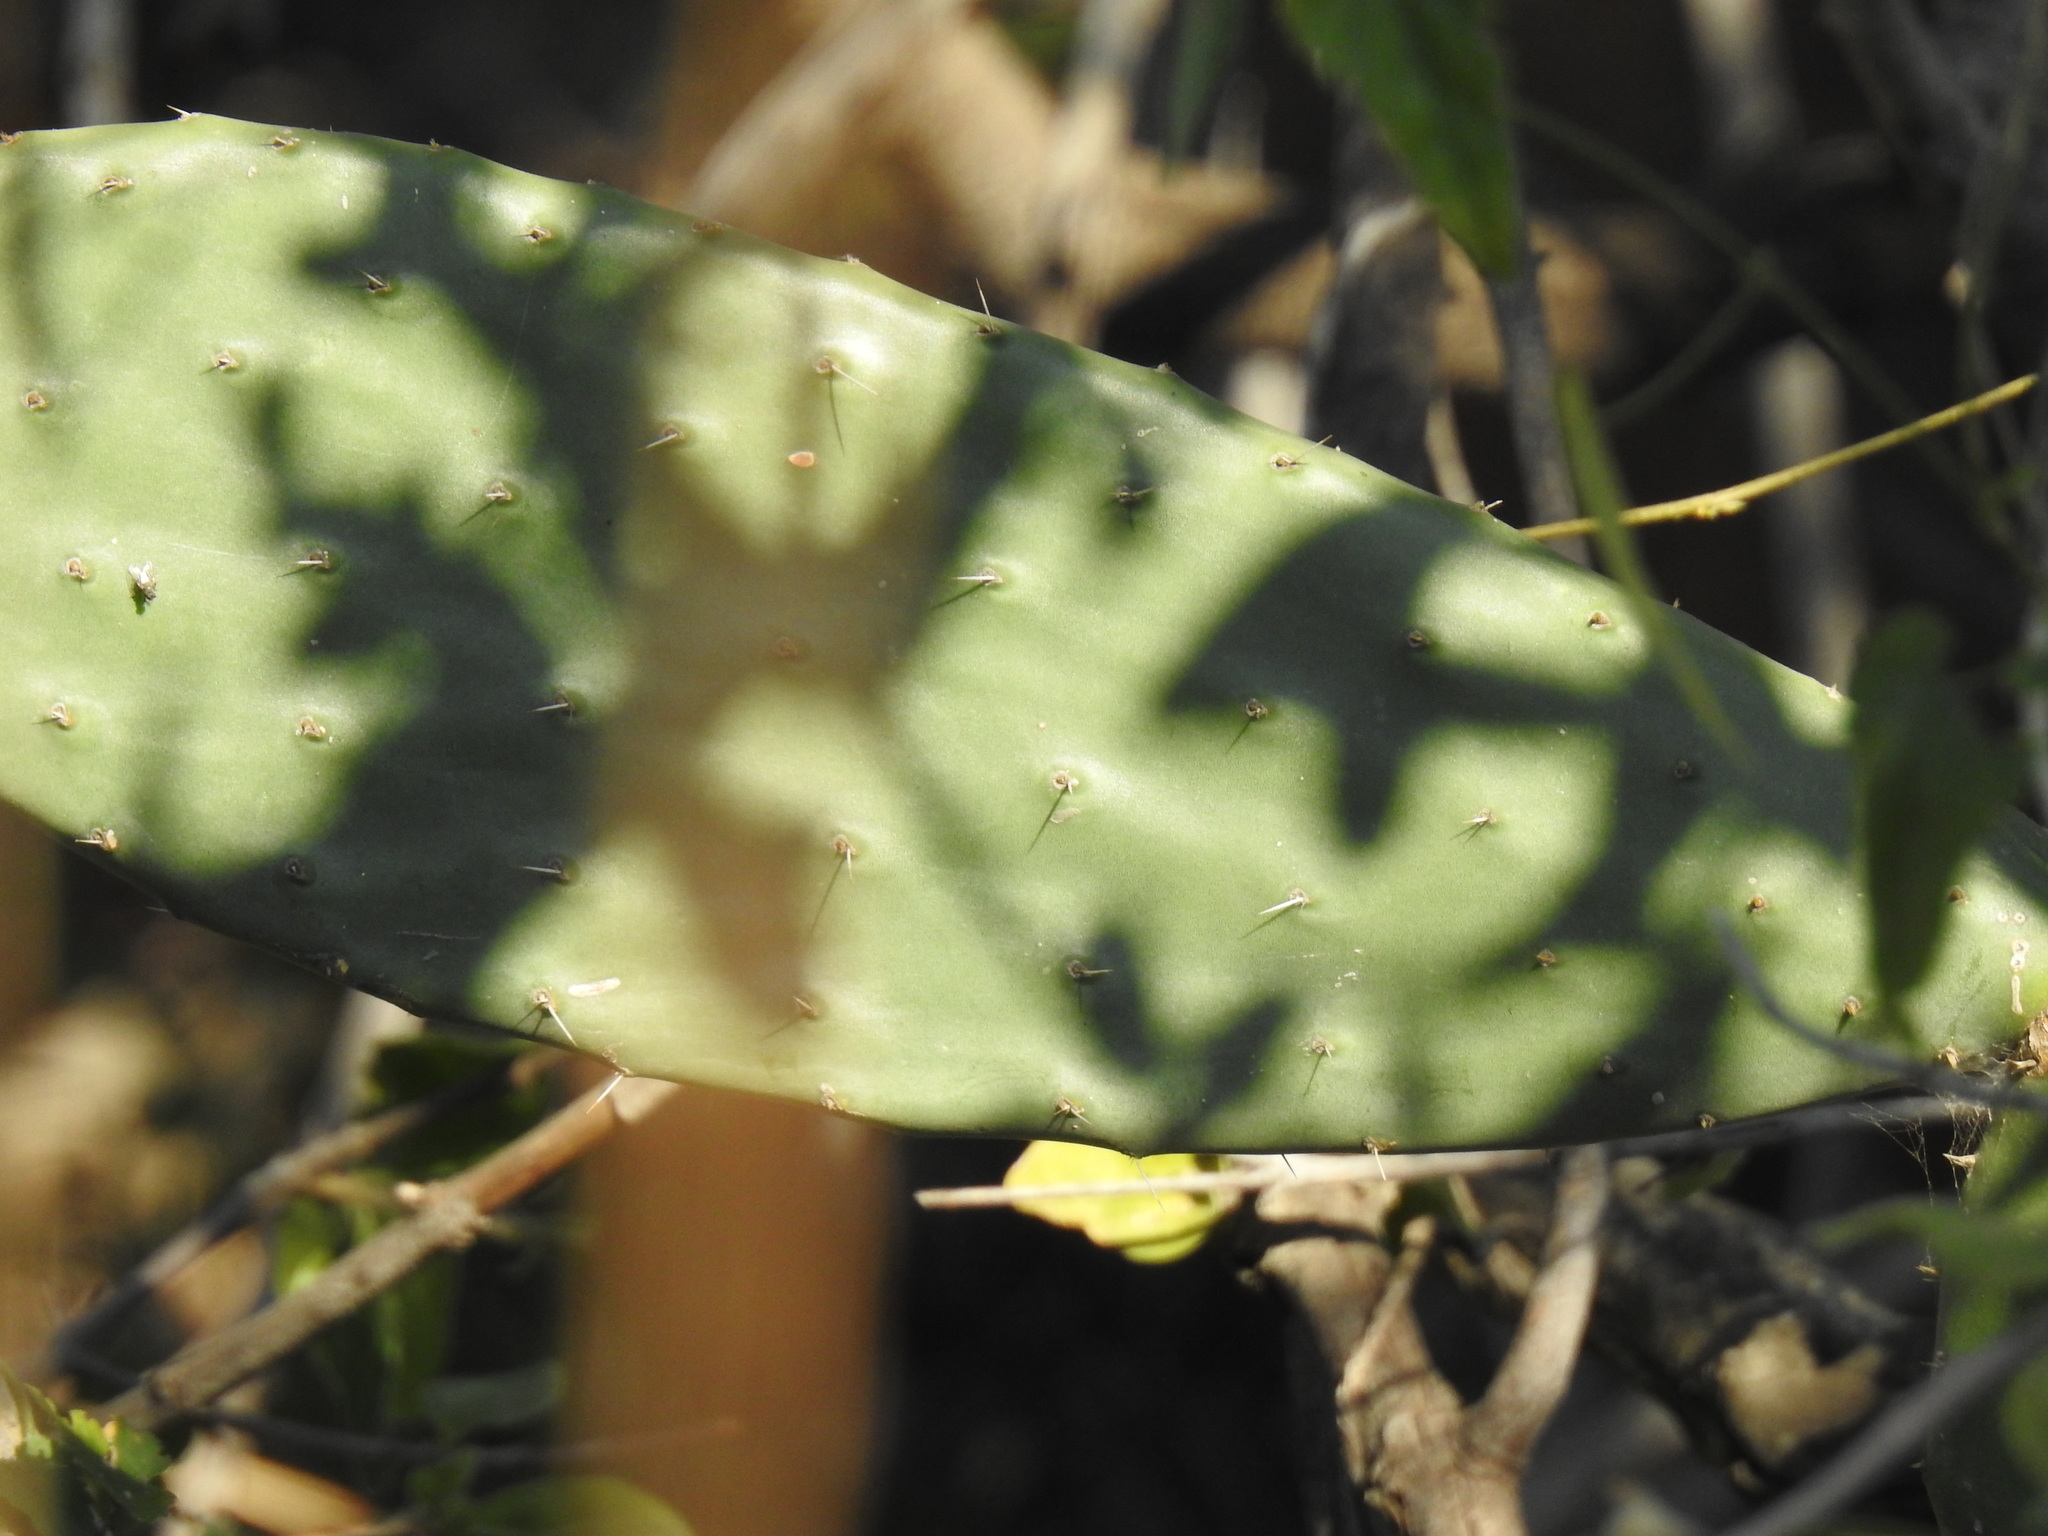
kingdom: Plantae
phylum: Tracheophyta
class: Magnoliopsida
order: Caryophyllales
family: Cactaceae
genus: Opuntia
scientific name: Opuntia ficus-indica
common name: Barbary fig
